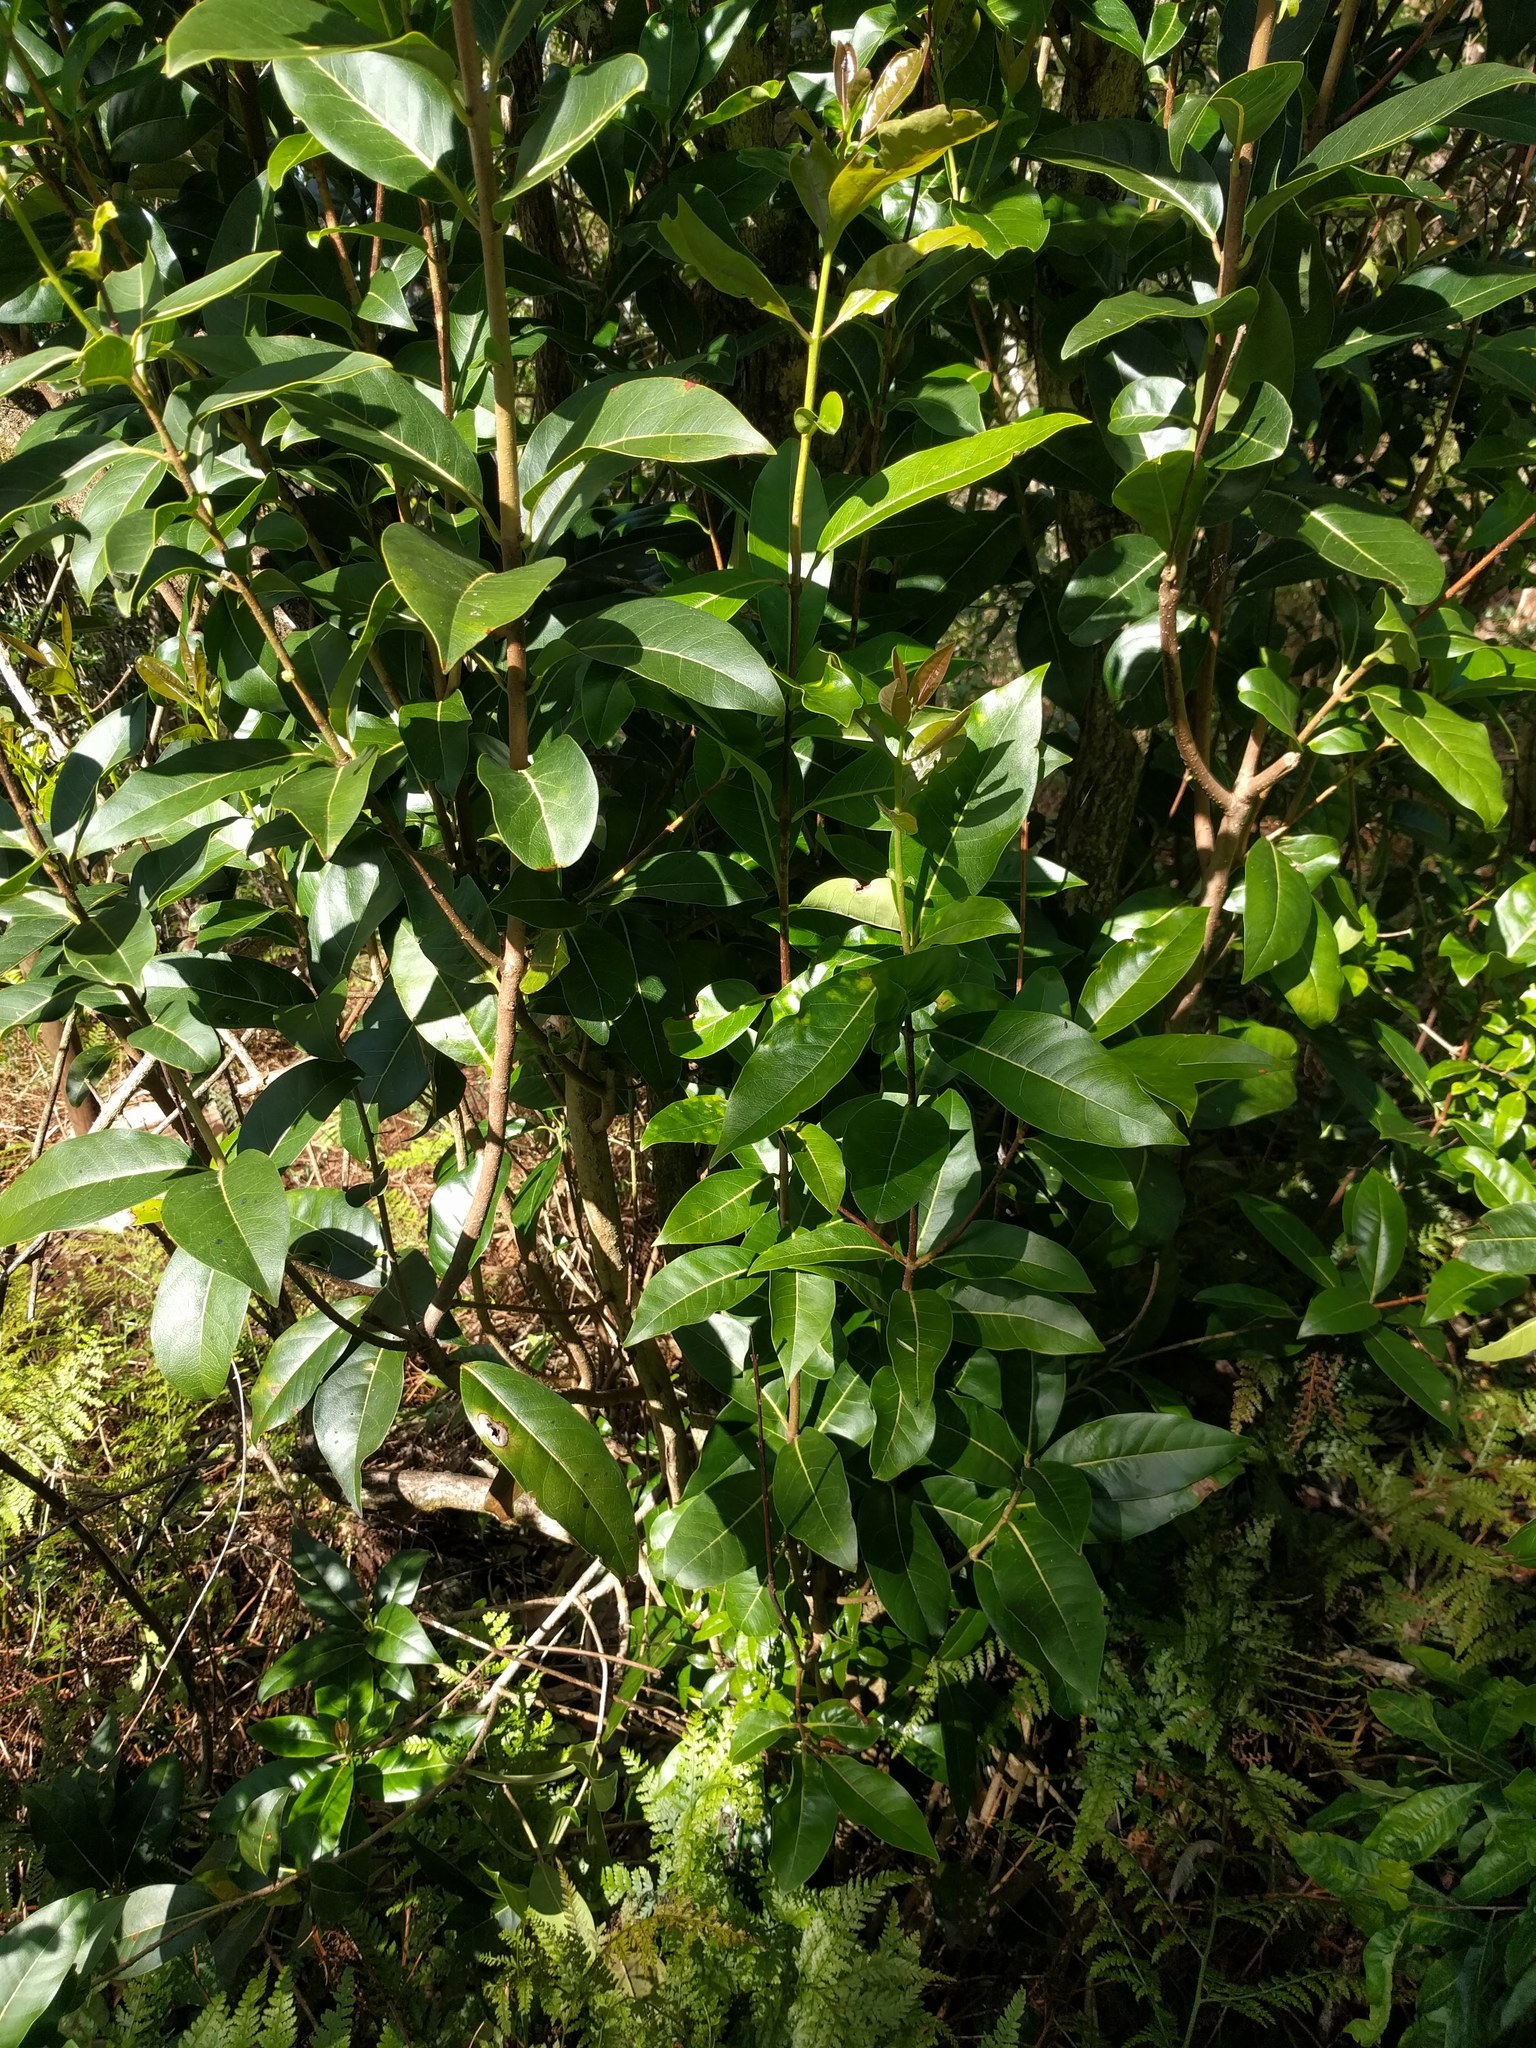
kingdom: Plantae
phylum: Tracheophyta
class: Magnoliopsida
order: Lamiales
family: Oleaceae
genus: Nestegis
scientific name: Nestegis sandwicensis
